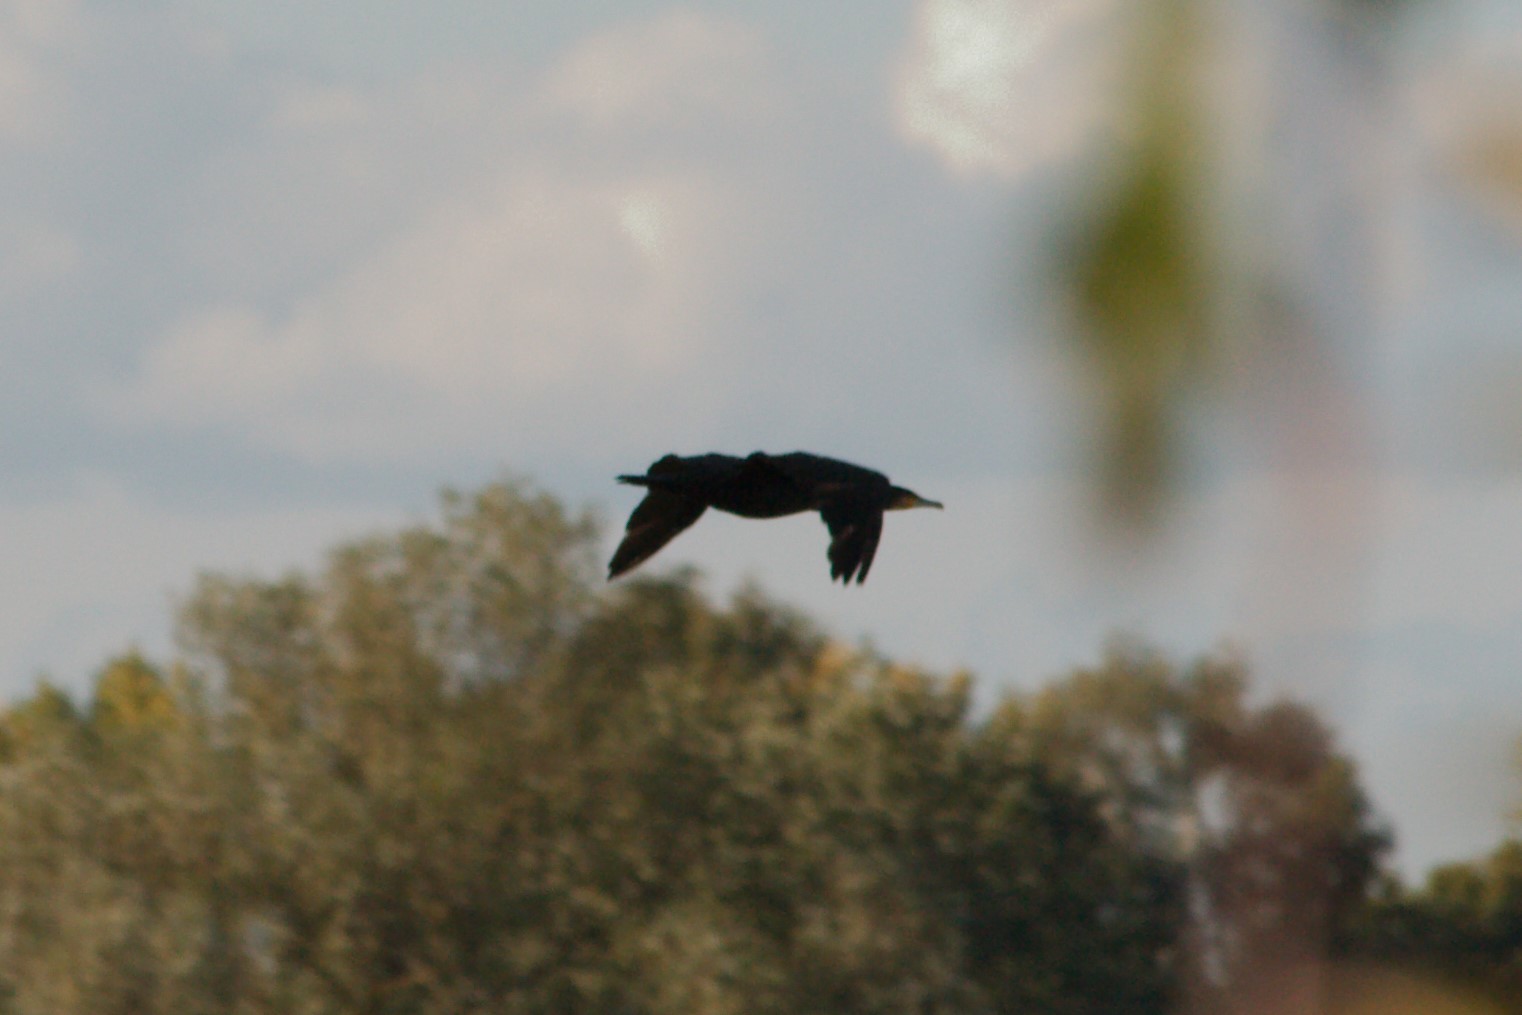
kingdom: Animalia
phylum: Chordata
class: Aves
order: Suliformes
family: Phalacrocoracidae
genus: Phalacrocorax
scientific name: Phalacrocorax carbo
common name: Great cormorant
